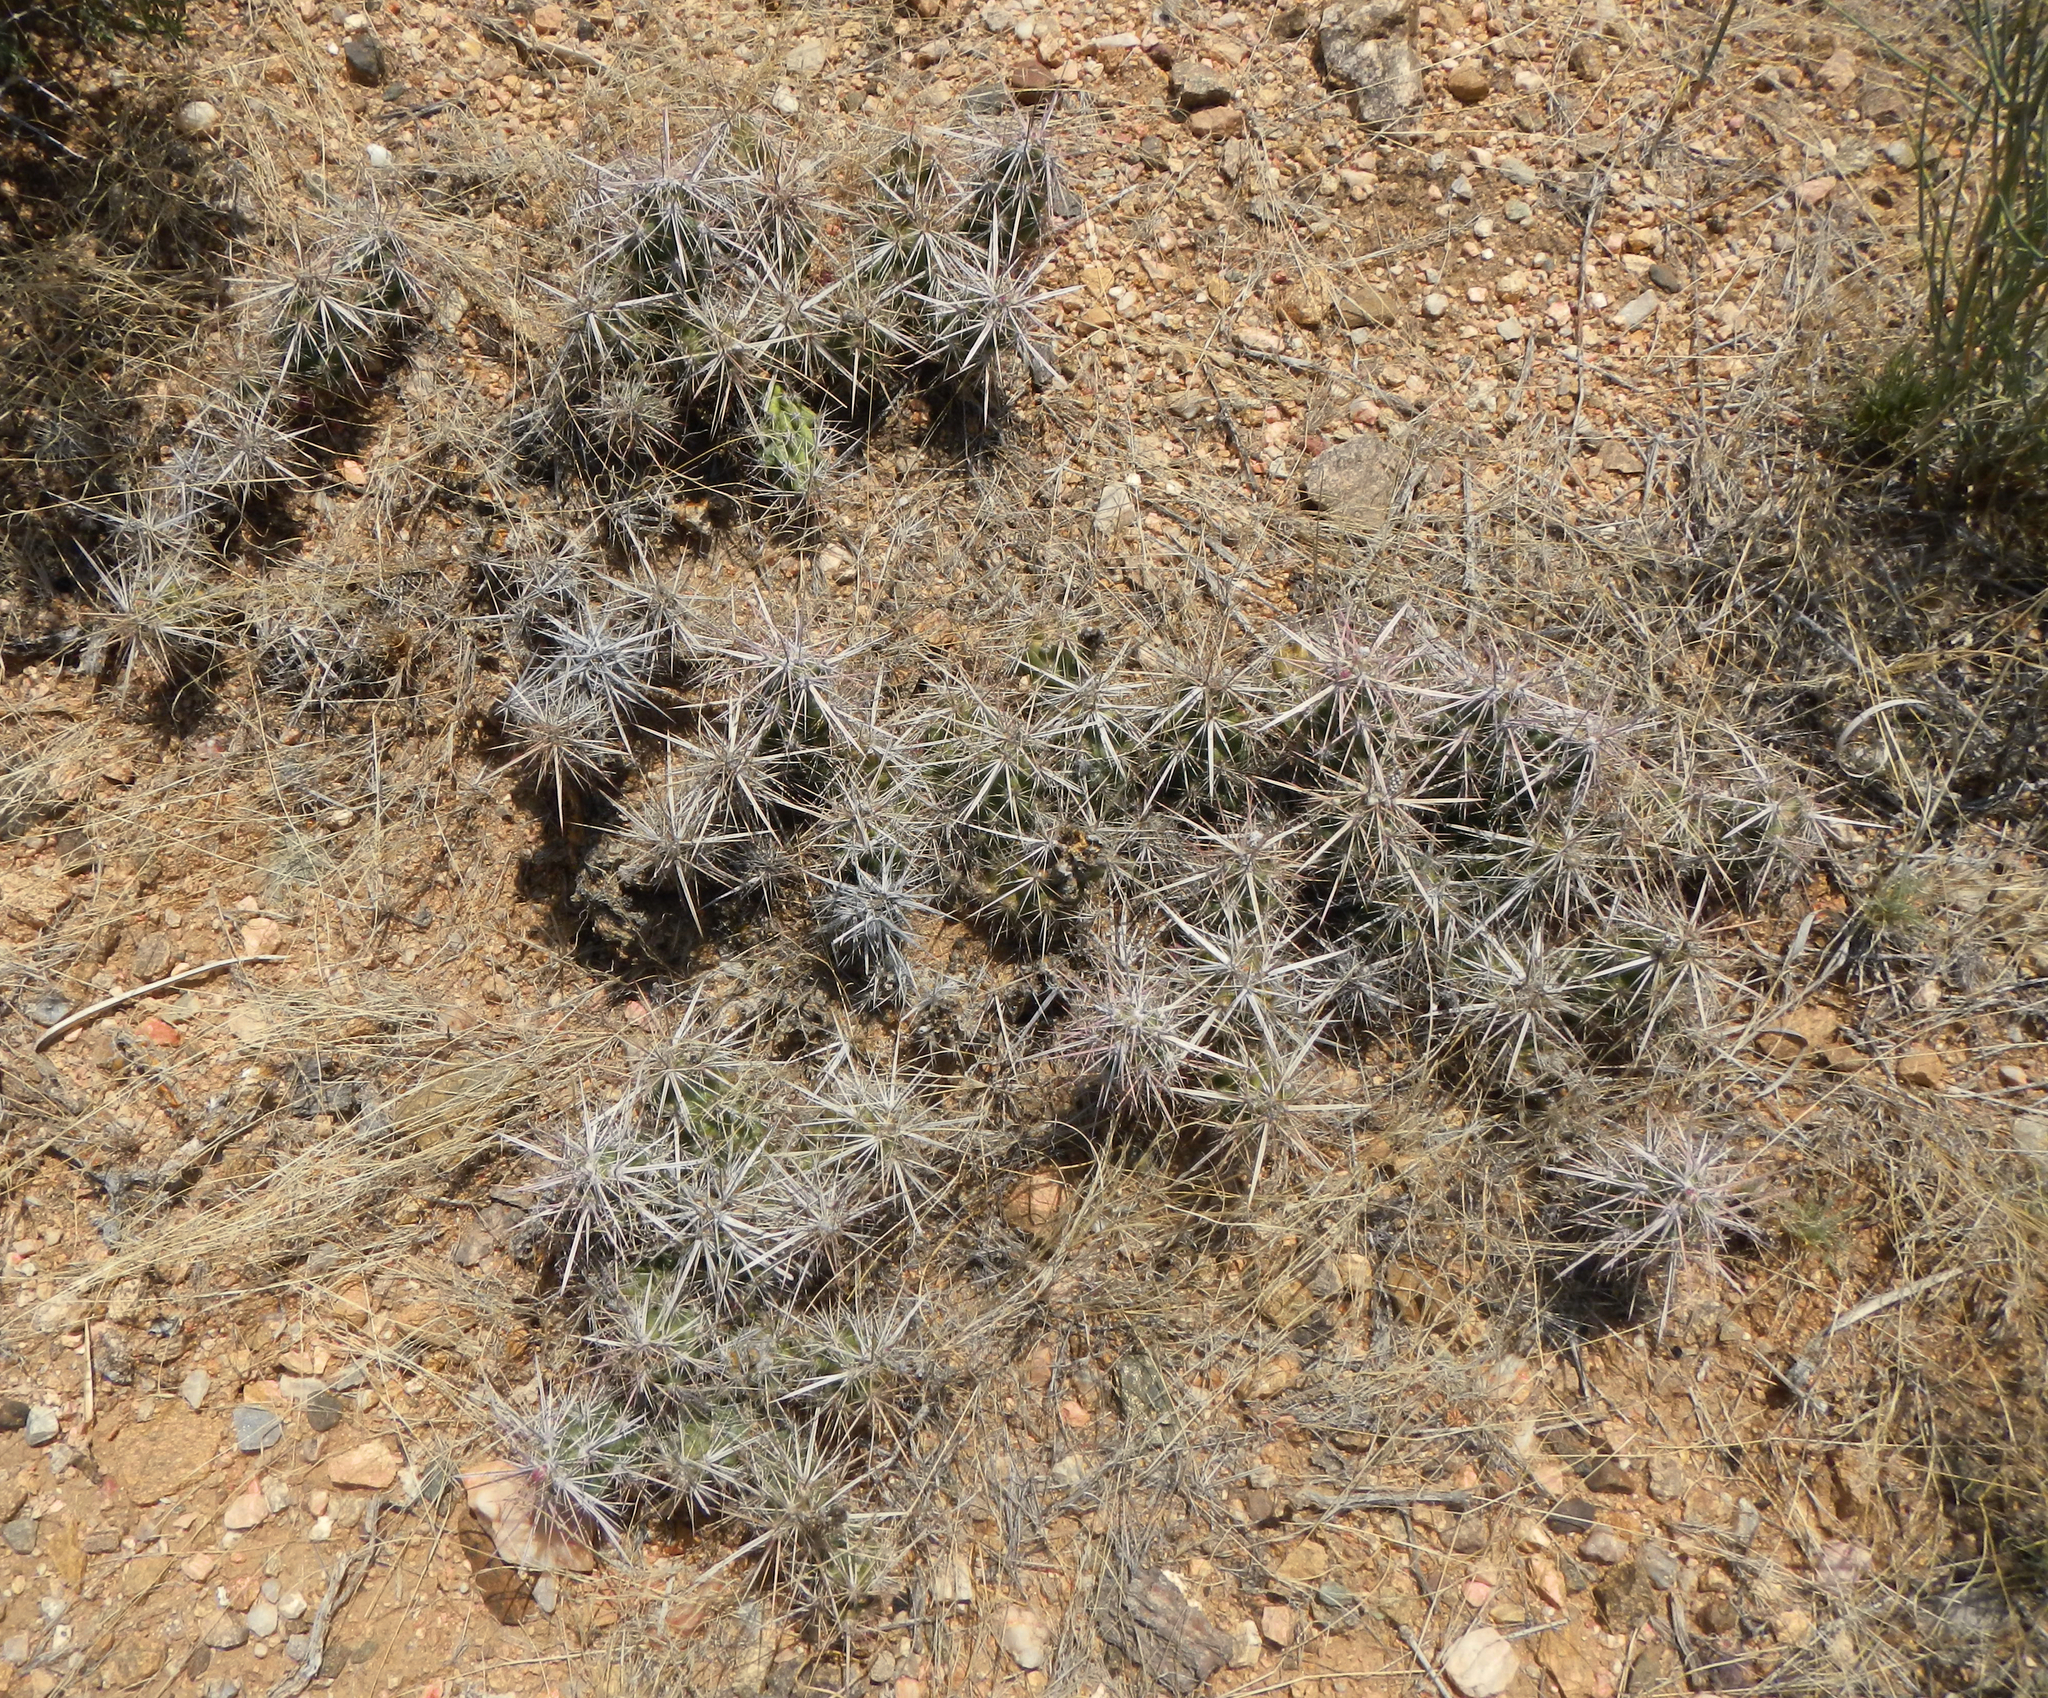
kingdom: Plantae
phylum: Tracheophyta
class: Magnoliopsida
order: Caryophyllales
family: Cactaceae
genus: Grusonia
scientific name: Grusonia parishiorum
